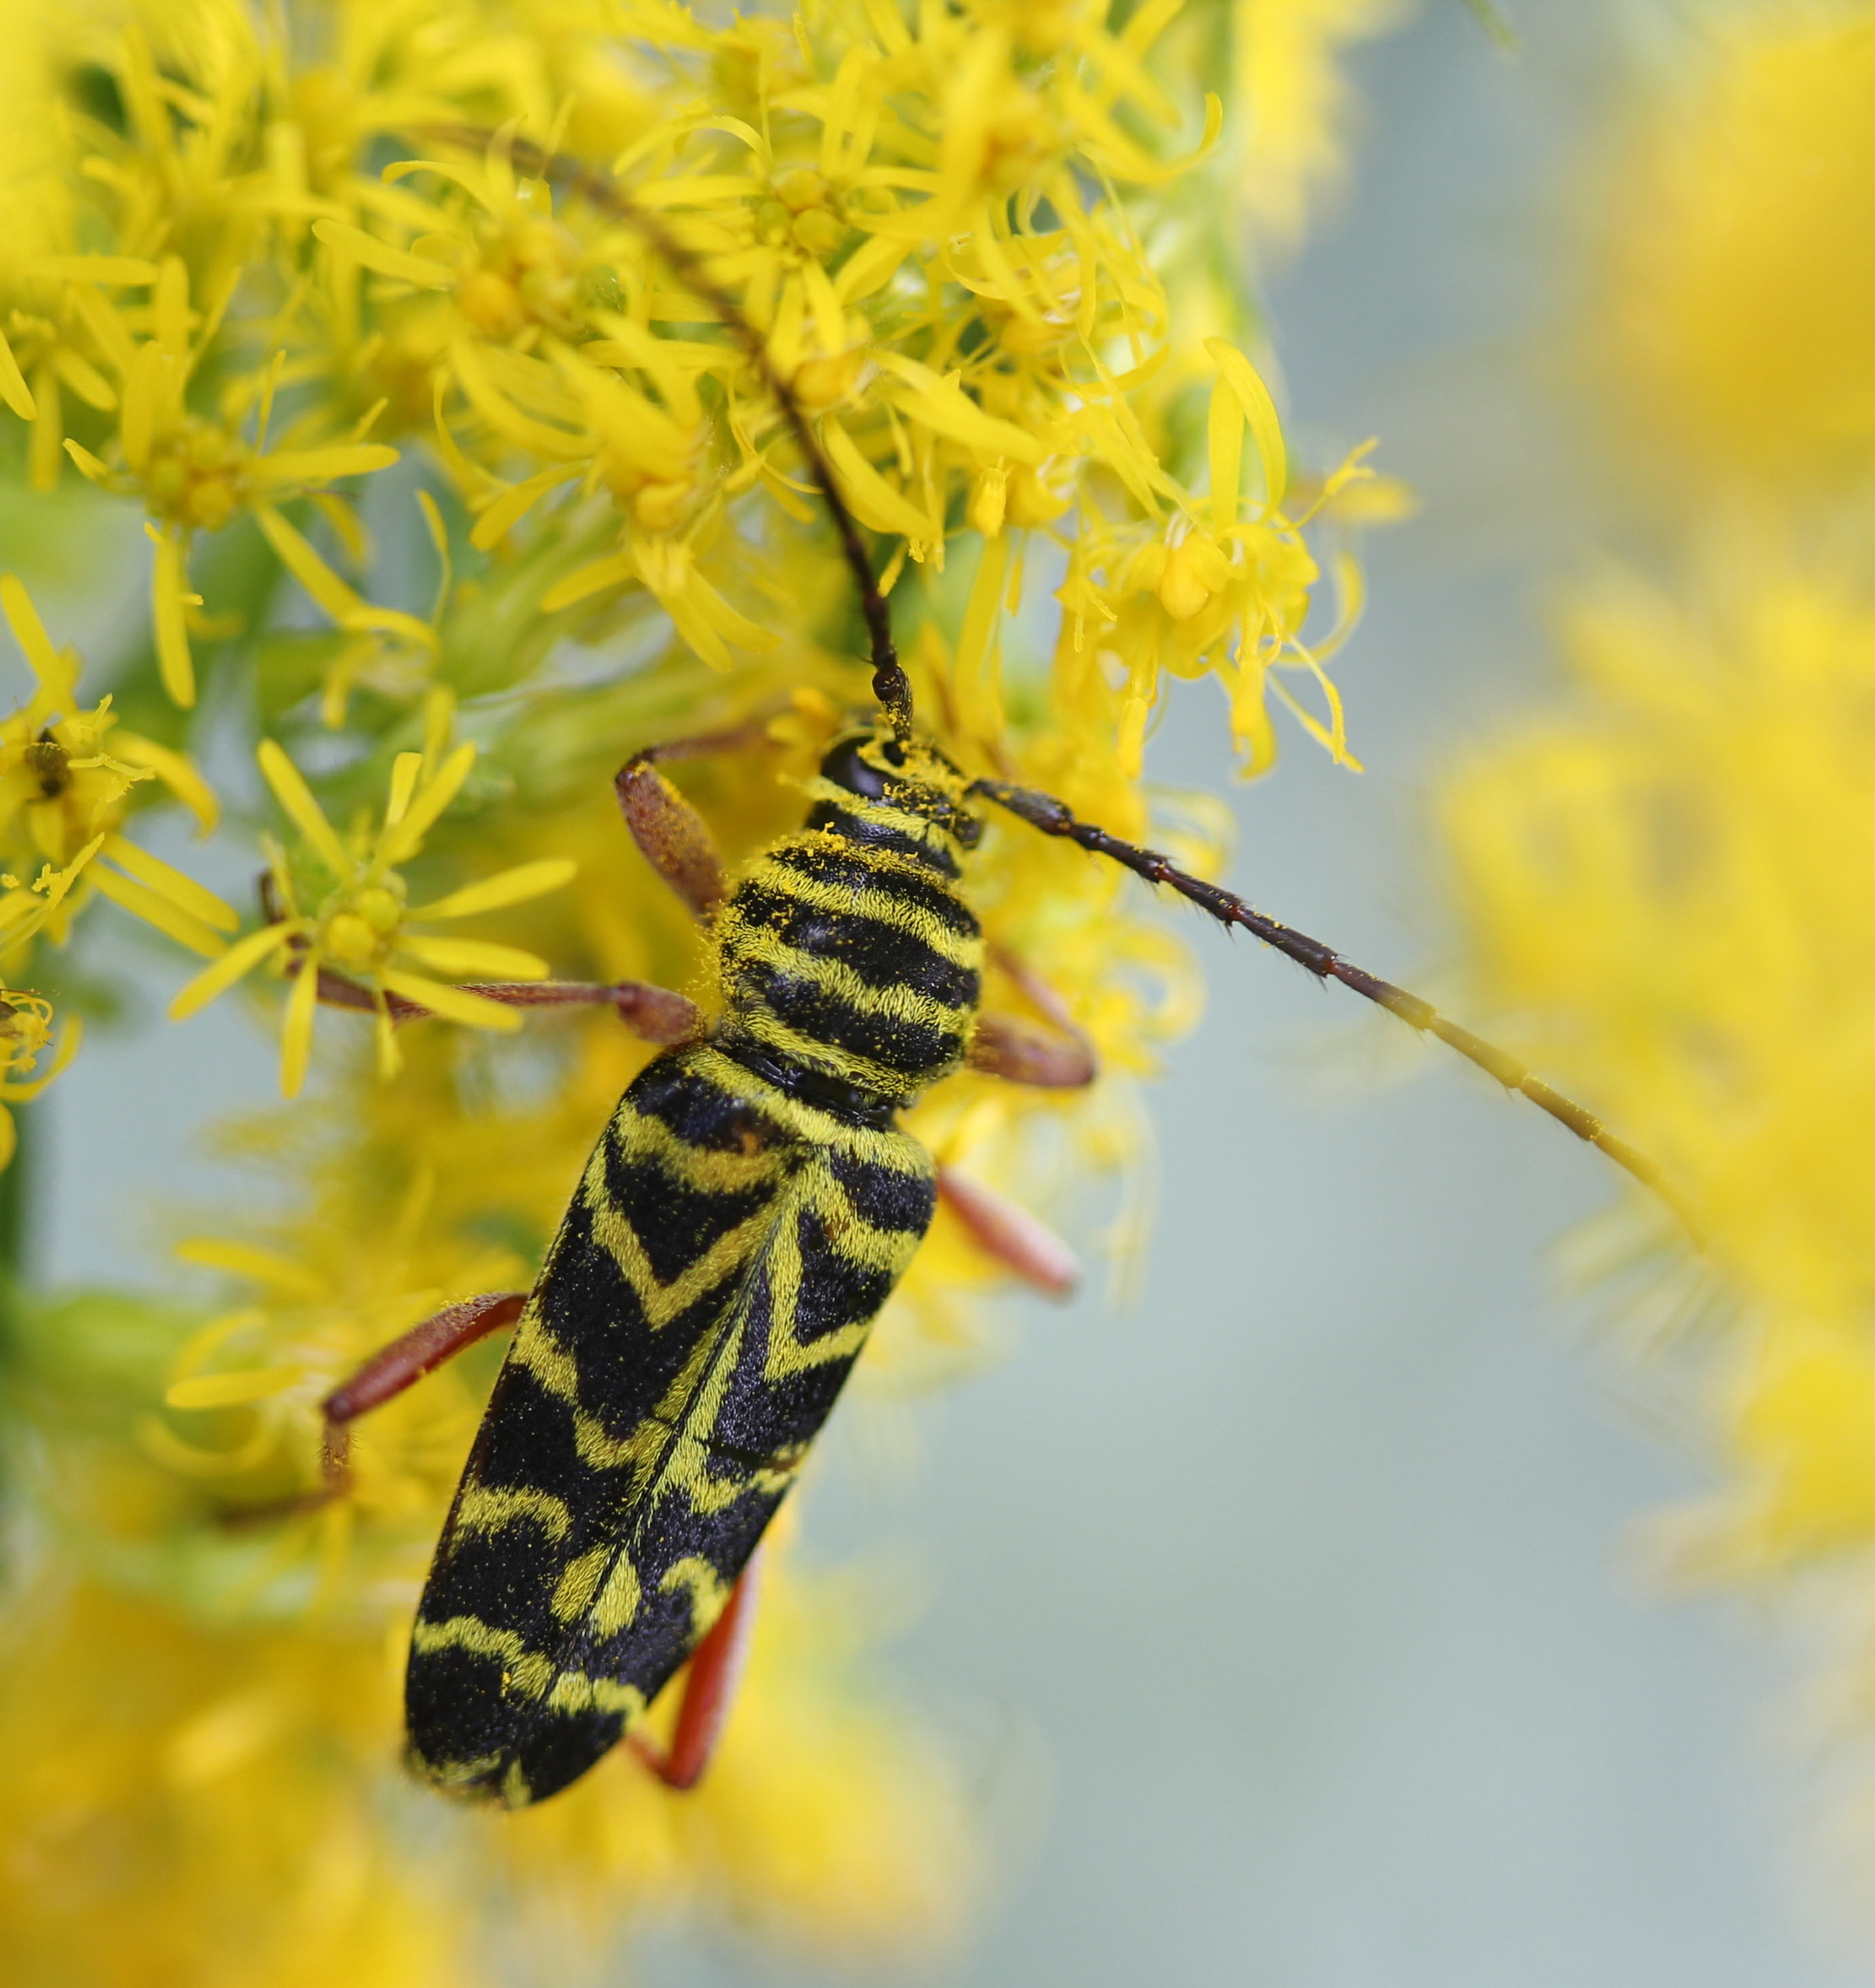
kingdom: Animalia
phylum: Arthropoda
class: Insecta
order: Coleoptera
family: Cerambycidae
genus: Megacyllene
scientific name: Megacyllene robiniae
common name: Locust borer
